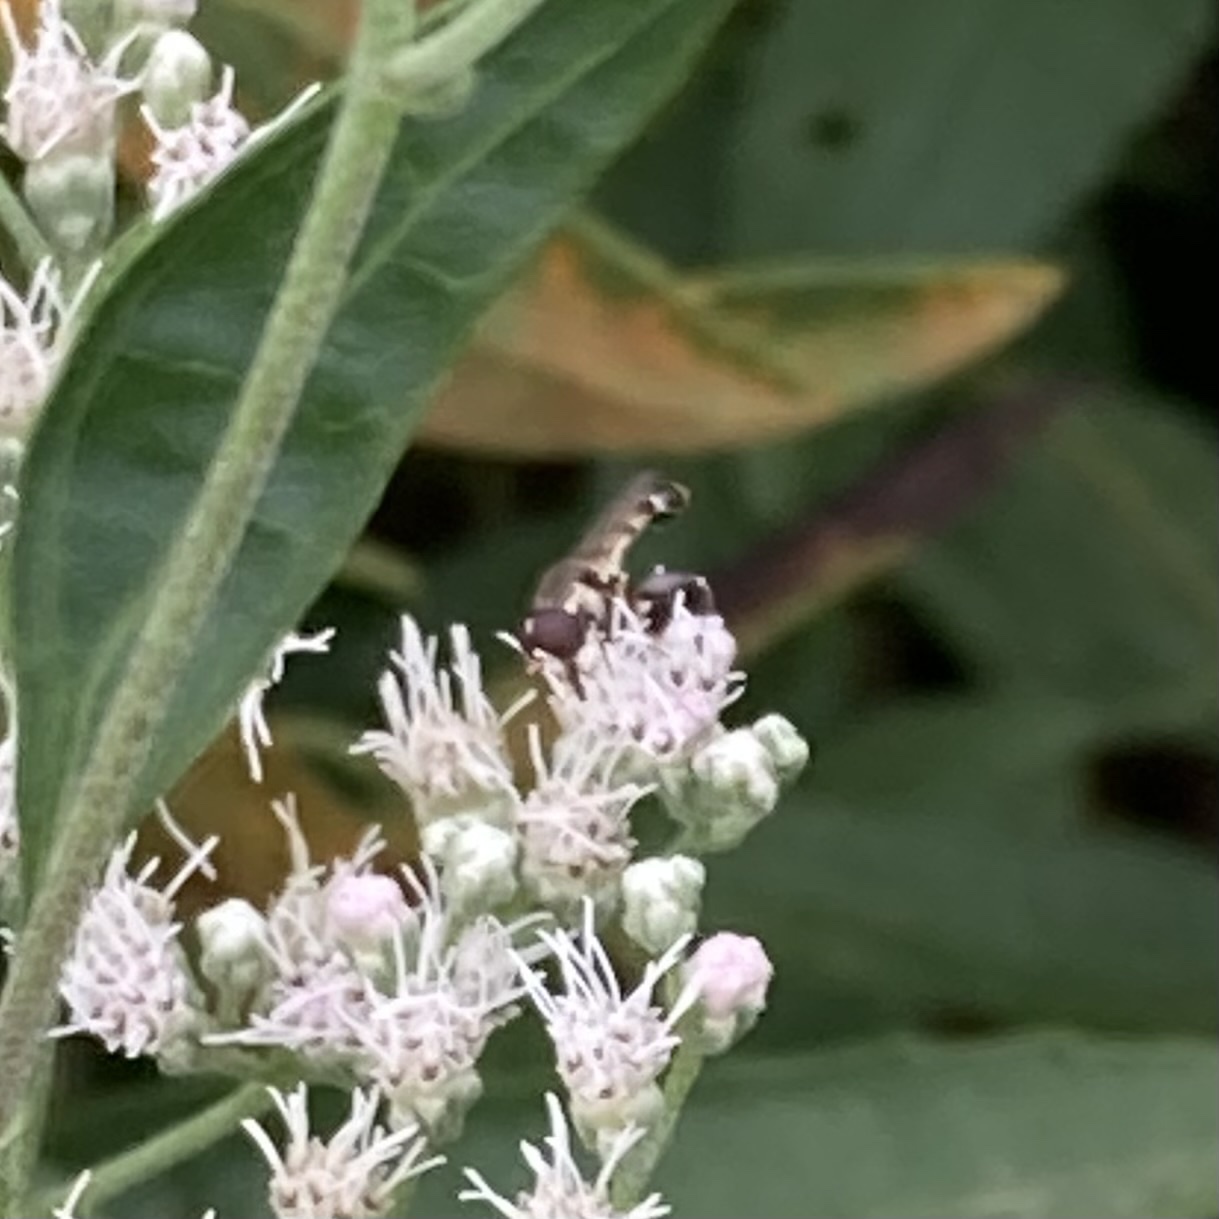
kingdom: Animalia
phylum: Arthropoda
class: Insecta
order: Diptera
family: Syrphidae
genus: Syritta
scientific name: Syritta pipiens
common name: Hover fly
